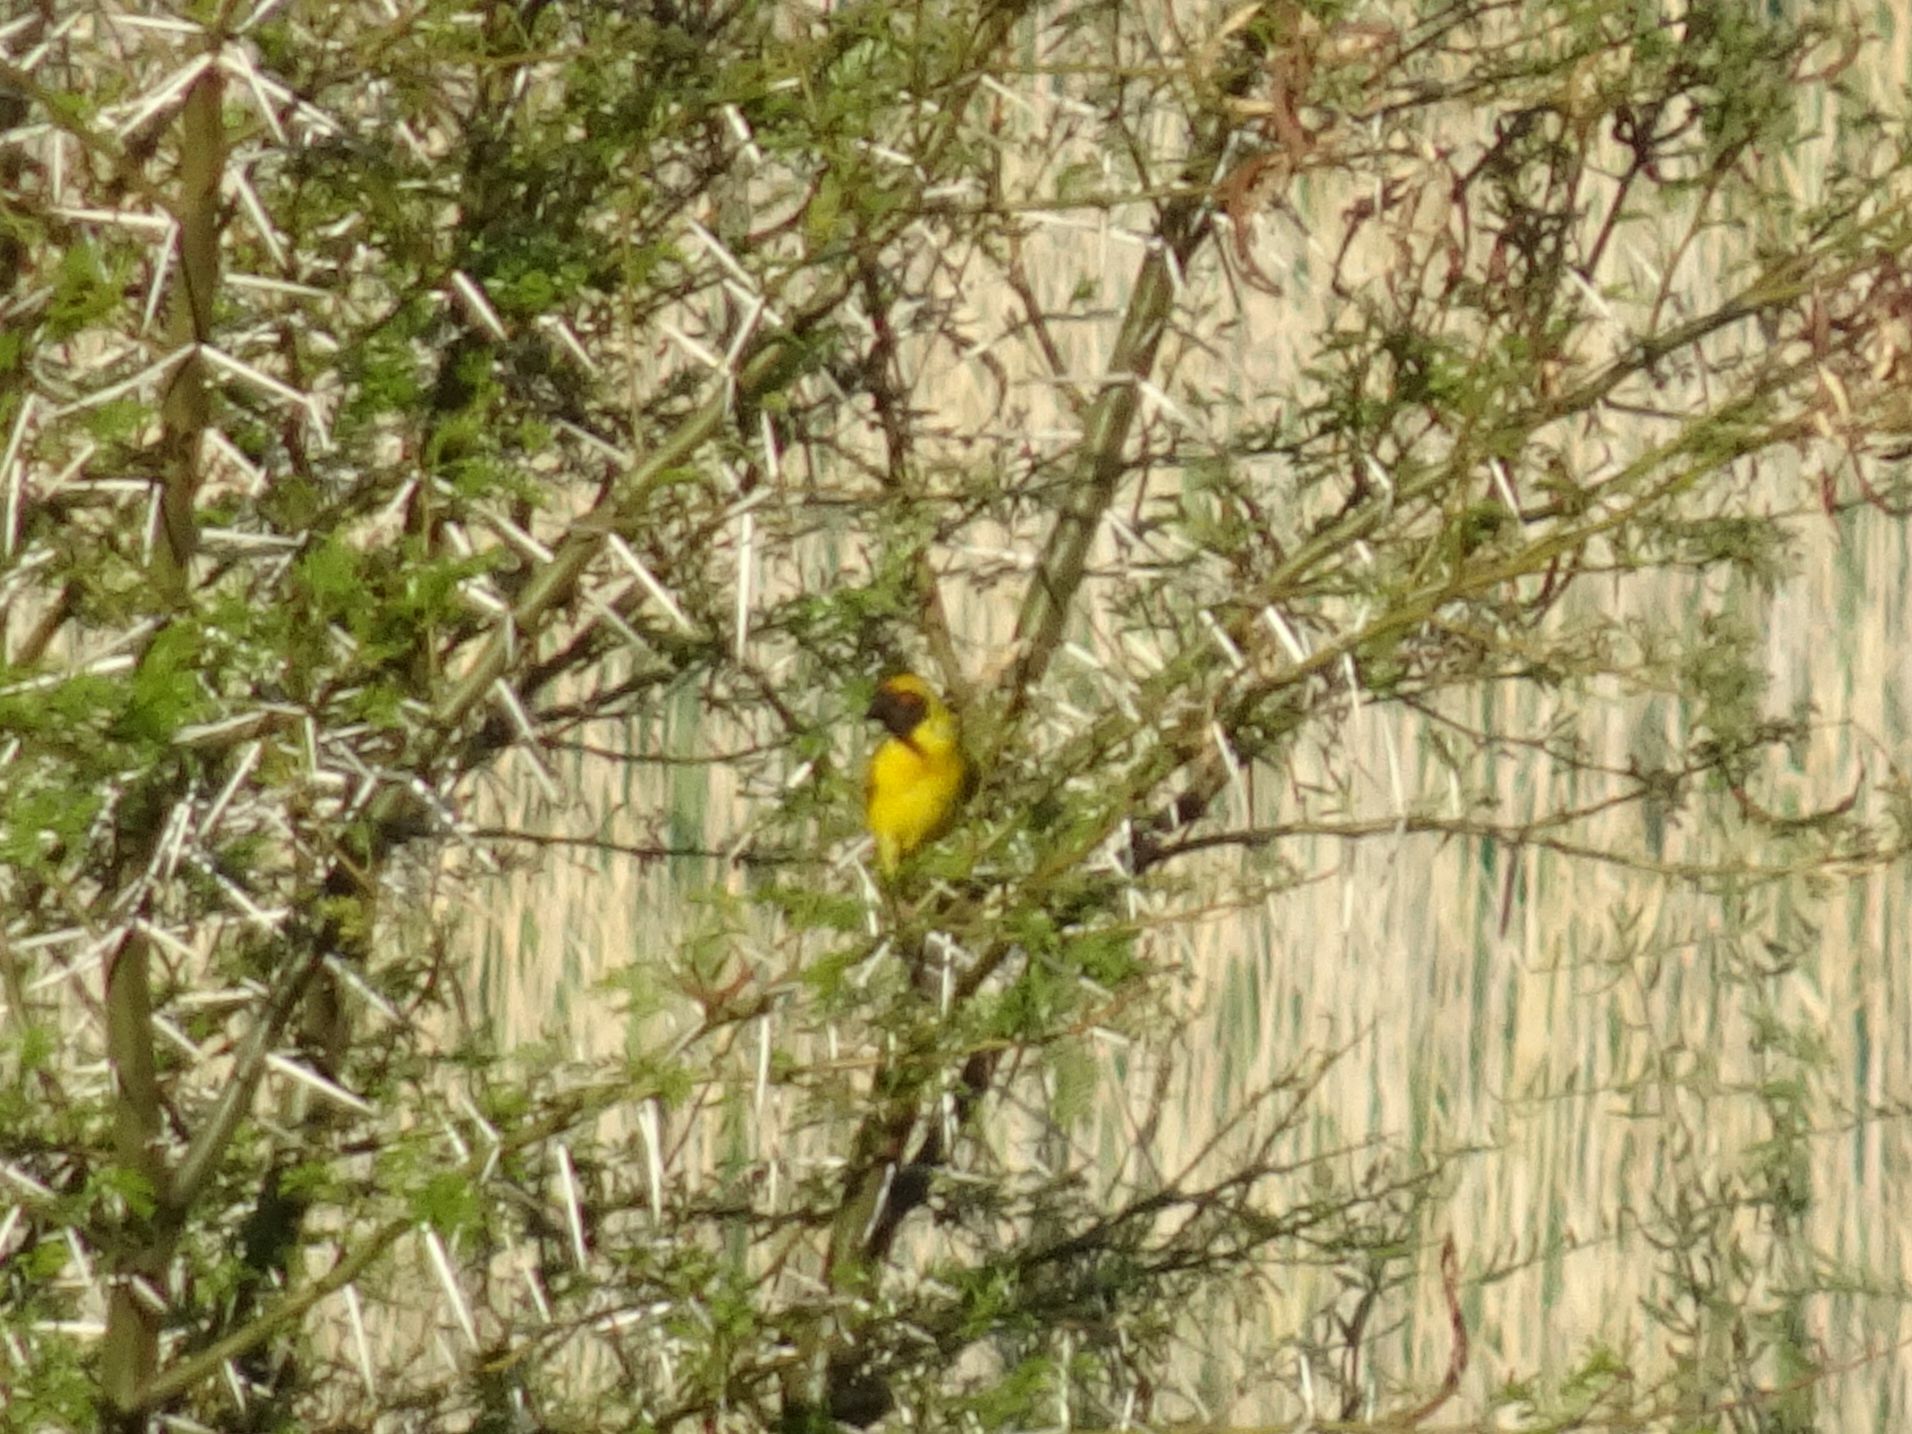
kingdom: Animalia
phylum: Chordata
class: Aves
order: Passeriformes
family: Ploceidae
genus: Ploceus
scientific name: Ploceus velatus
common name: Southern masked weaver
